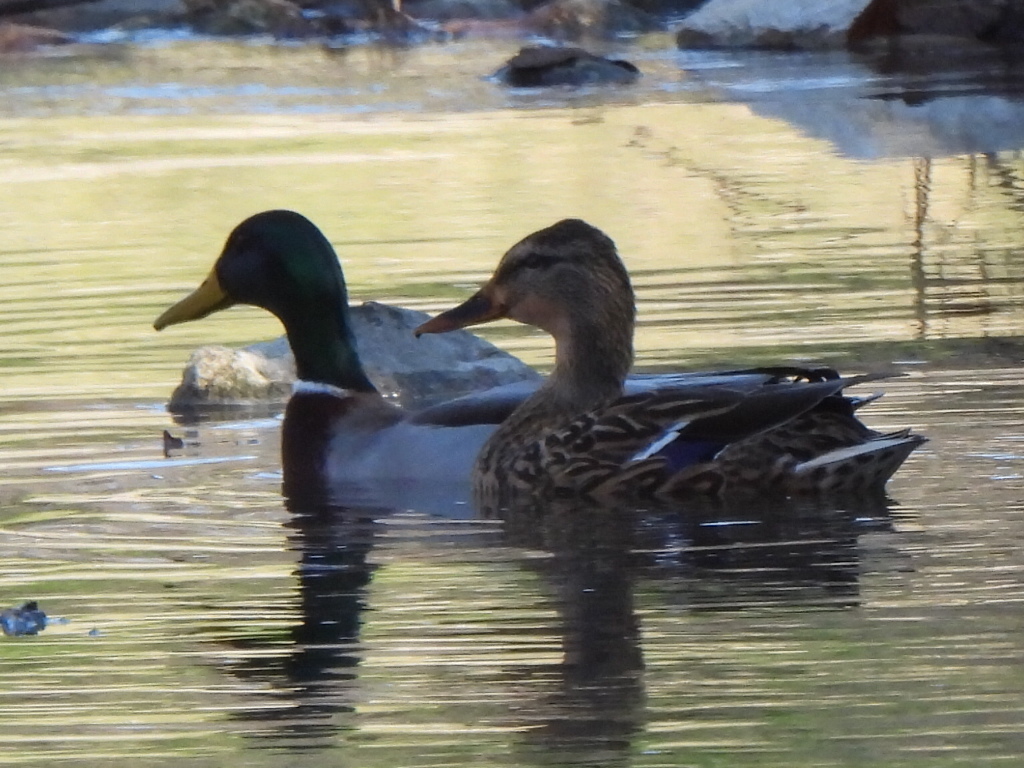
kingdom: Animalia
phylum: Chordata
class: Aves
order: Anseriformes
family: Anatidae
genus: Anas
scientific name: Anas platyrhynchos
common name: Mallard
